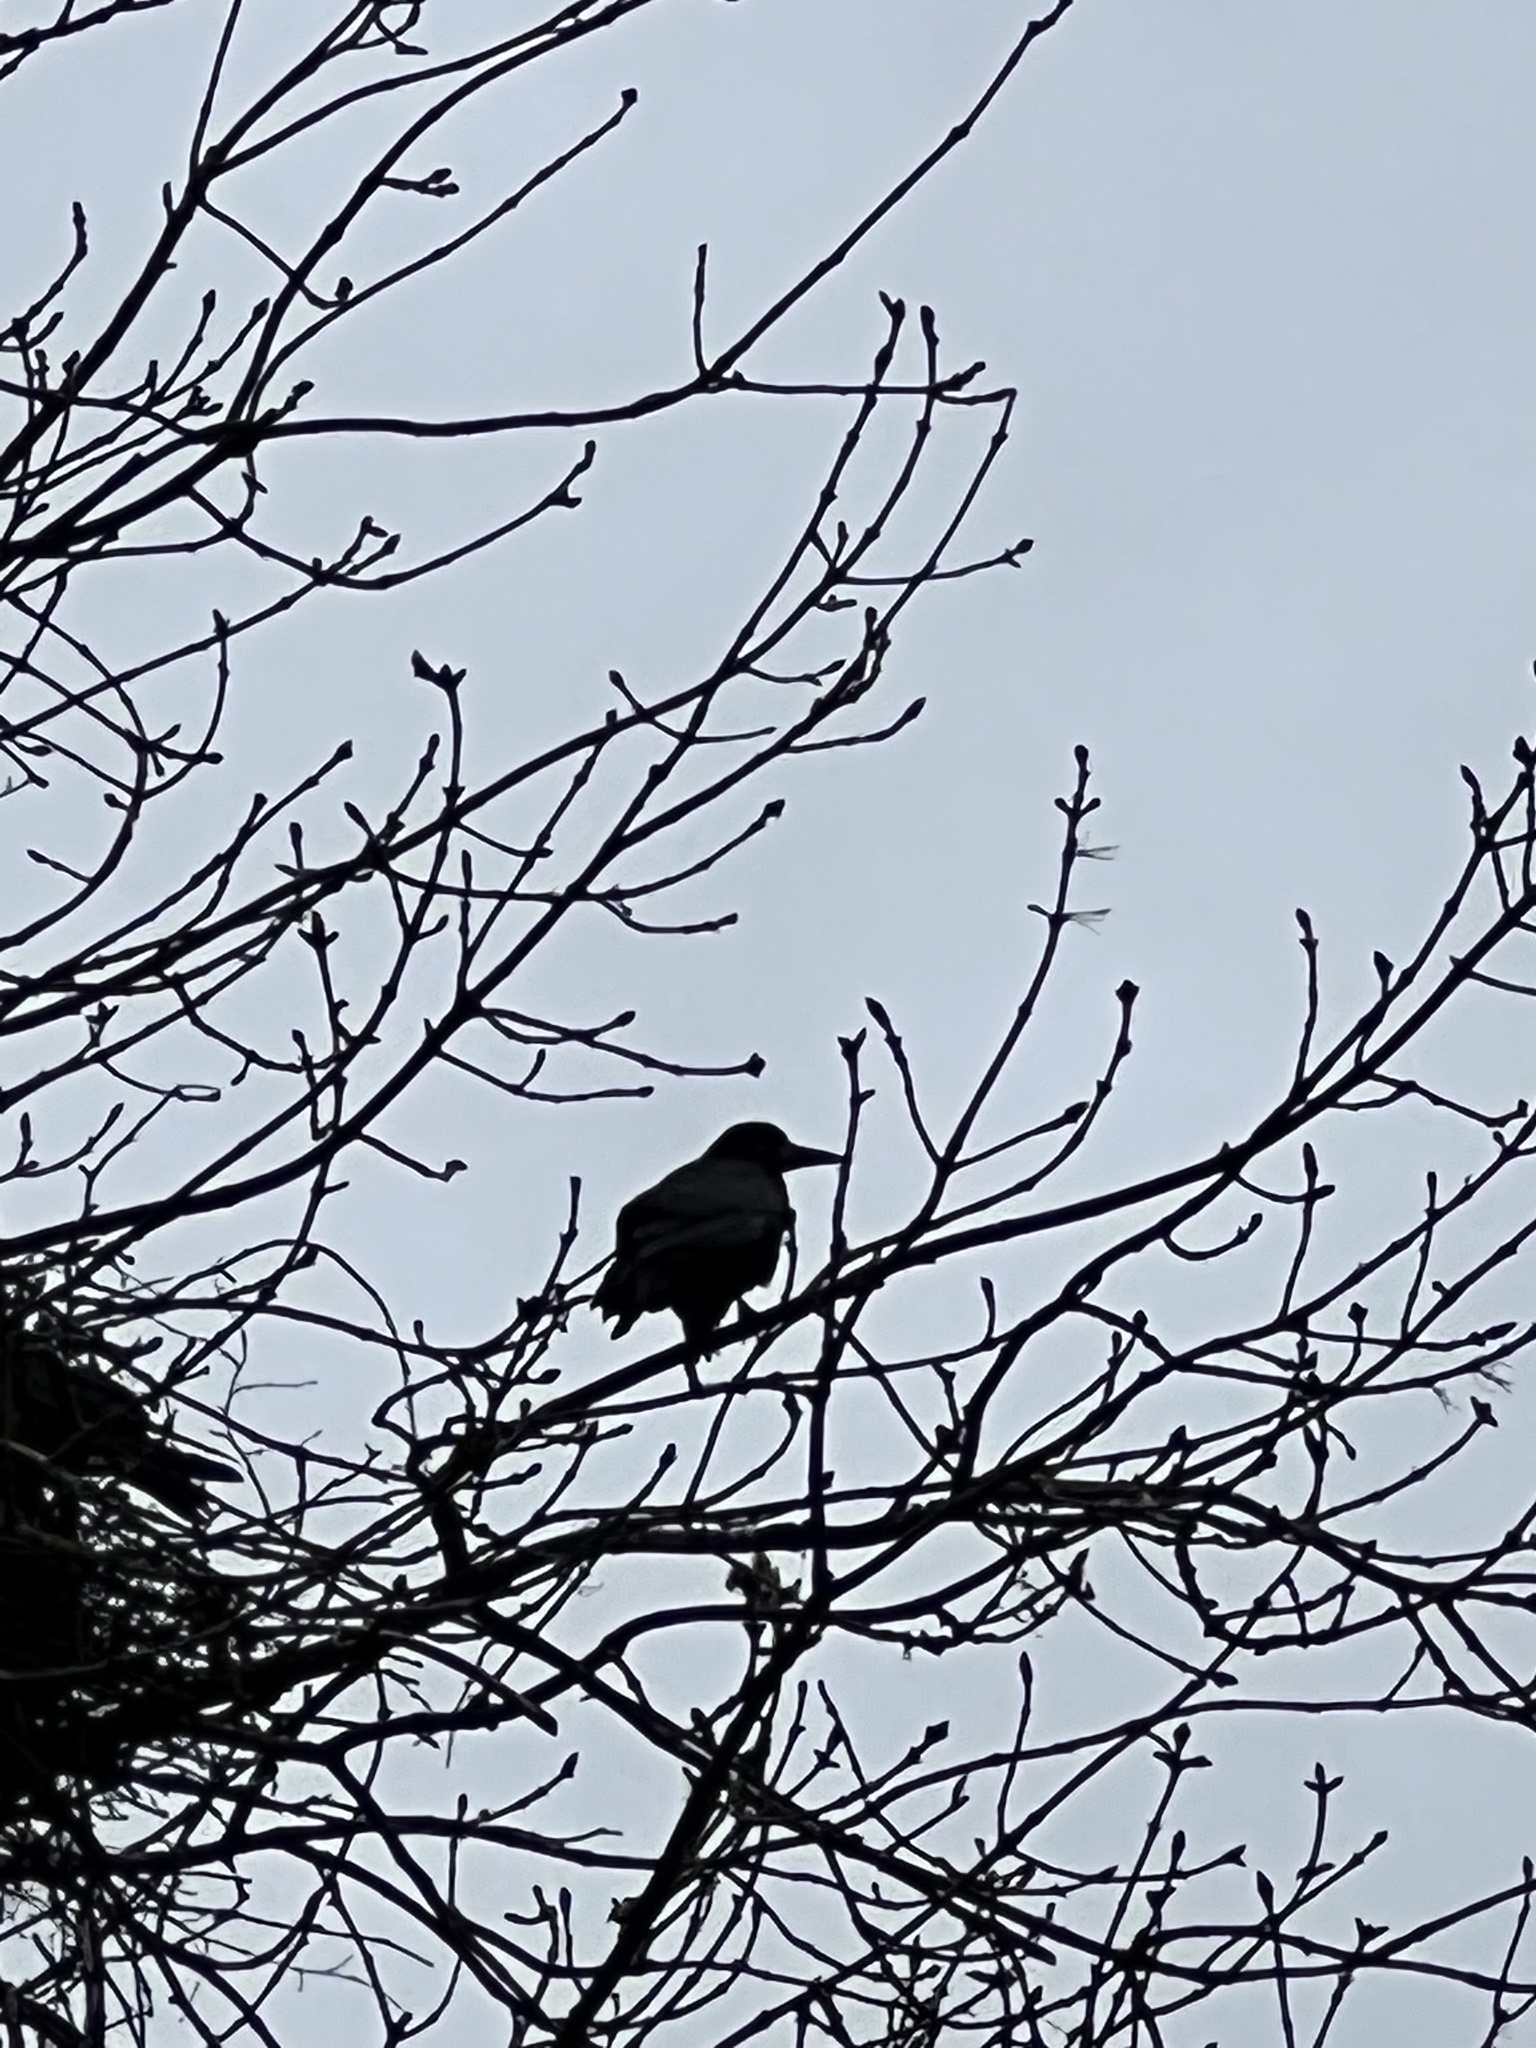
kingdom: Animalia
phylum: Chordata
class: Aves
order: Passeriformes
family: Corvidae
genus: Corvus
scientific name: Corvus frugilegus
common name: Rook
